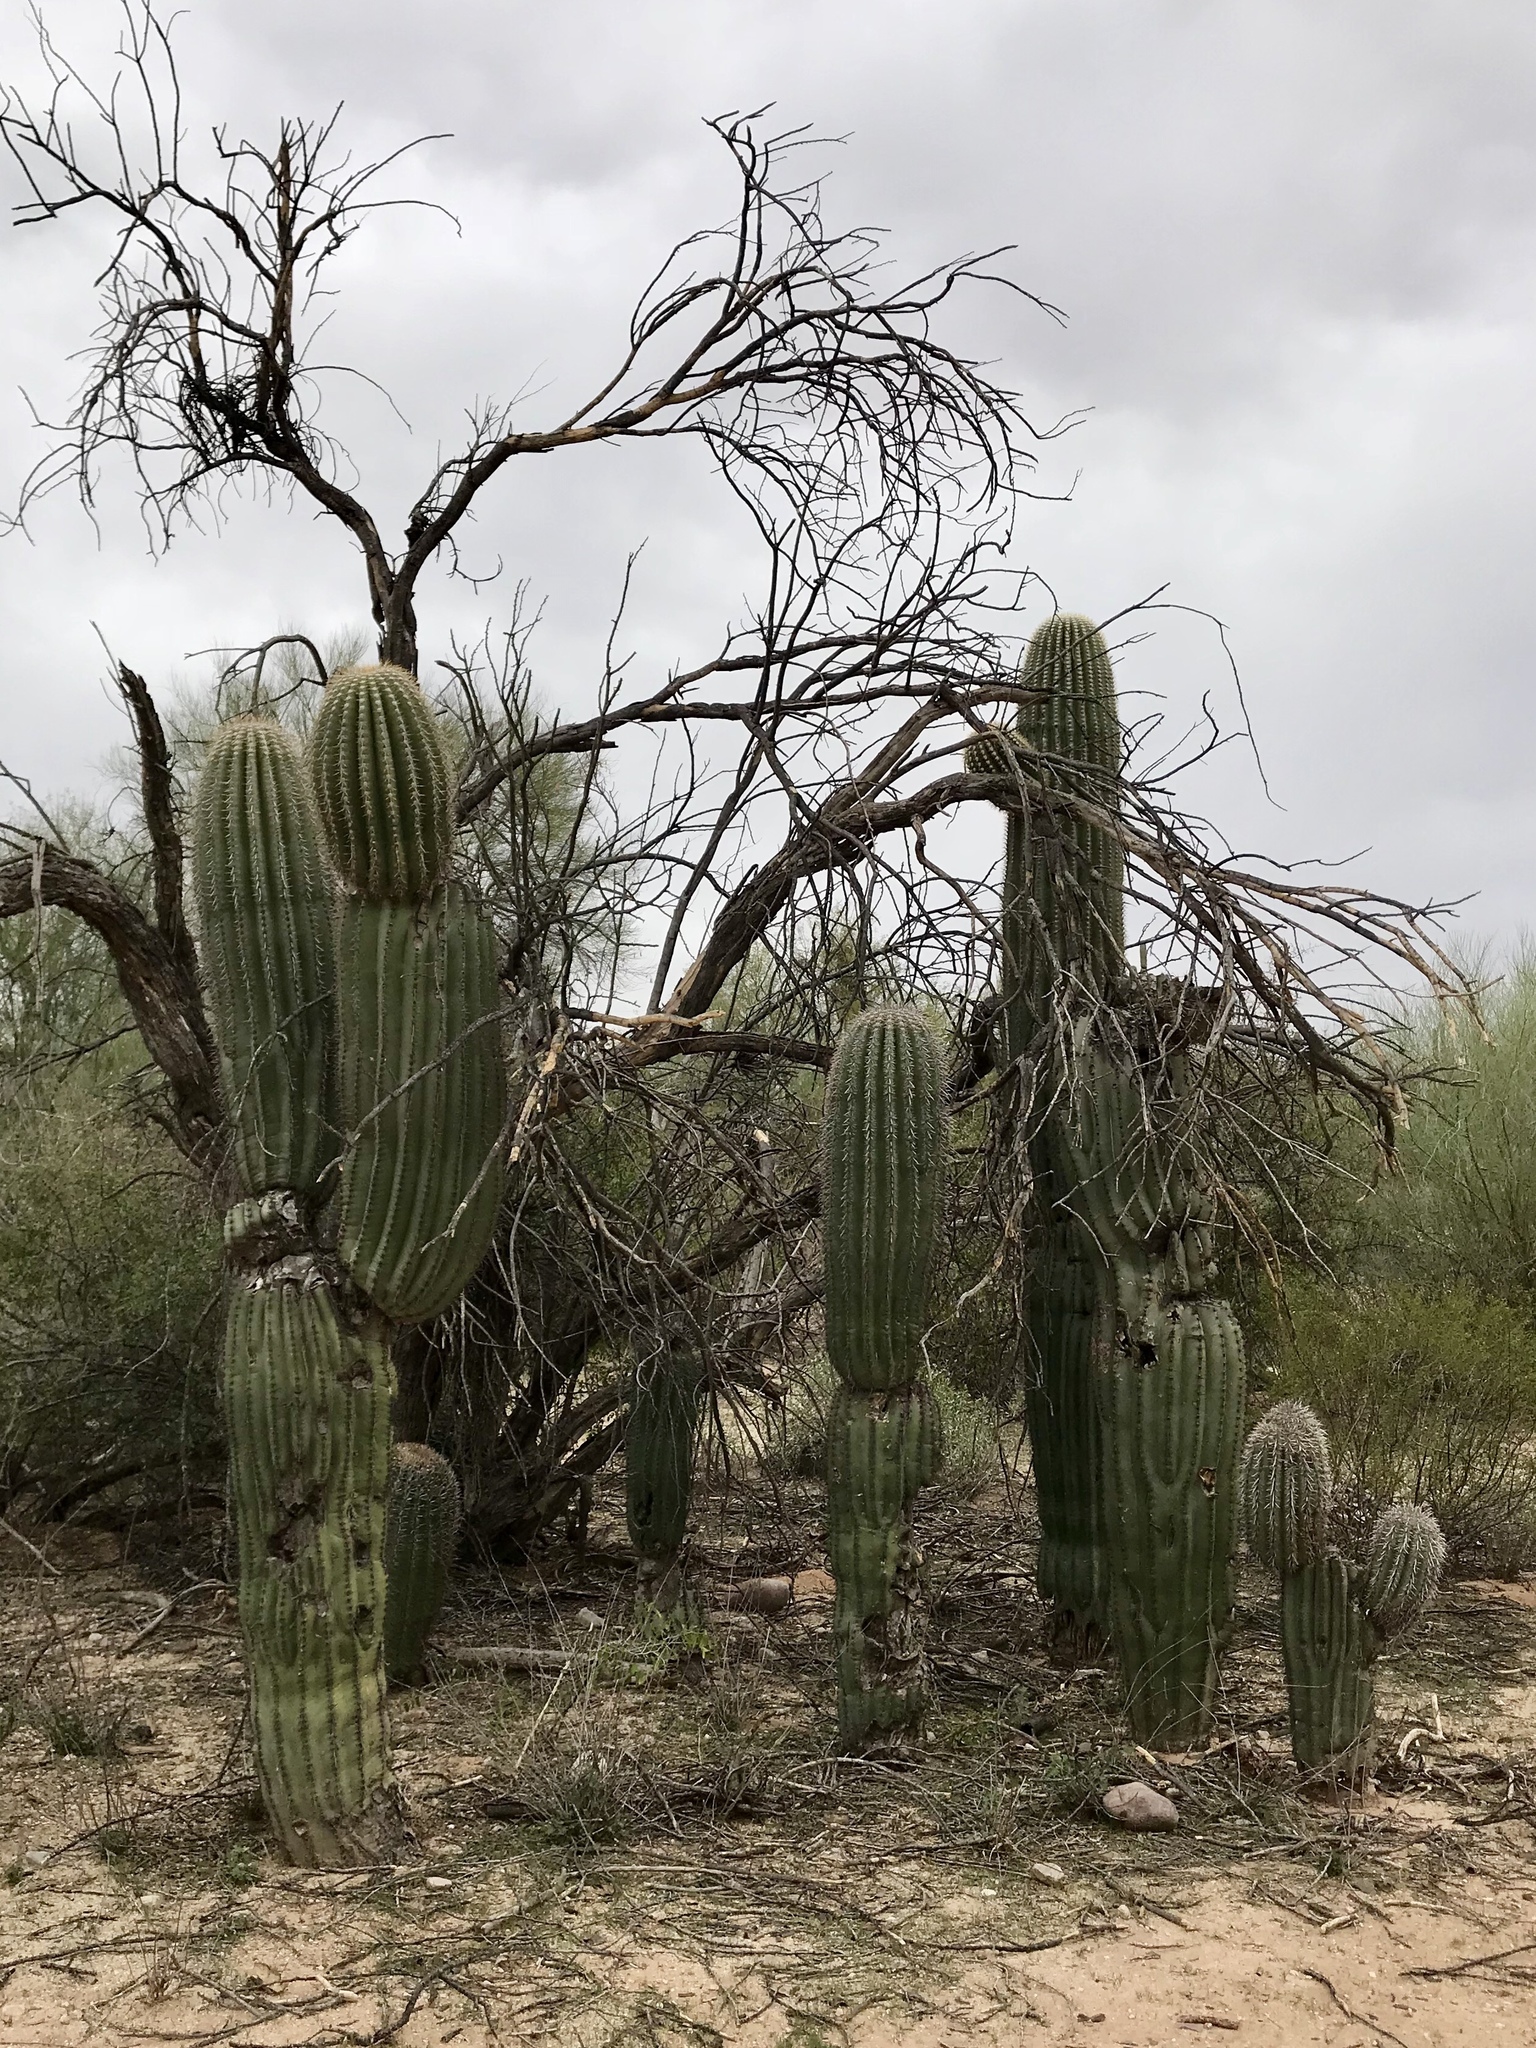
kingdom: Plantae
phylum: Tracheophyta
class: Magnoliopsida
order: Caryophyllales
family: Cactaceae
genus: Carnegiea
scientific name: Carnegiea gigantea
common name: Saguaro
